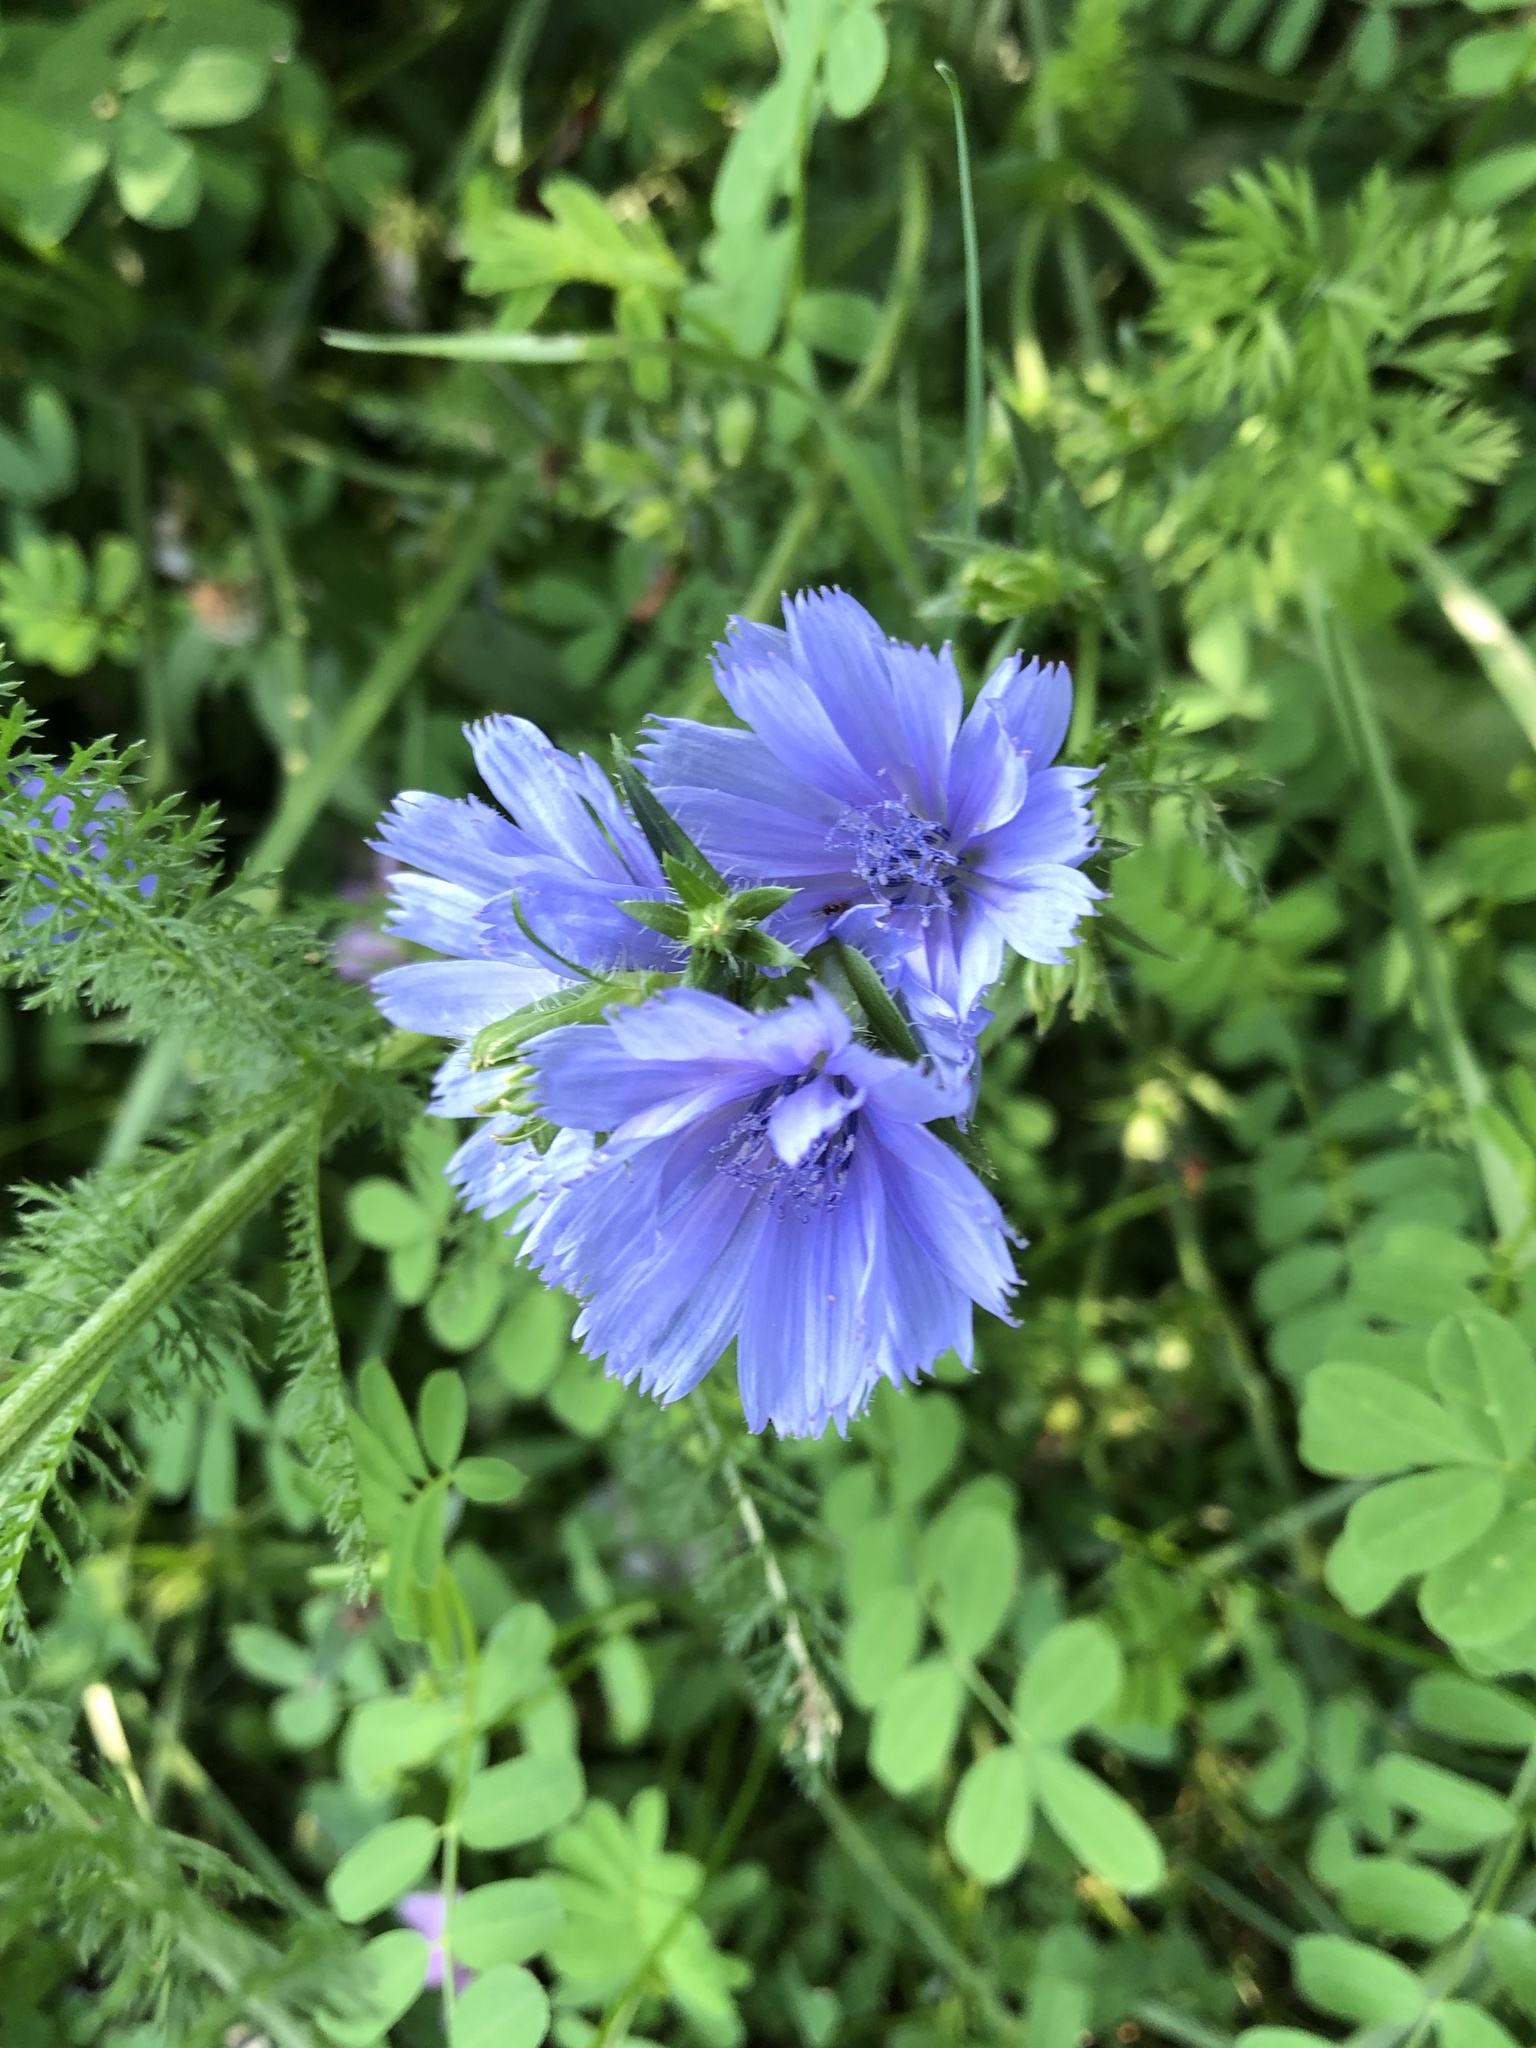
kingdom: Plantae
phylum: Tracheophyta
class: Magnoliopsida
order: Asterales
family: Asteraceae
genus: Cichorium
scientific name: Cichorium intybus
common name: Chicory
